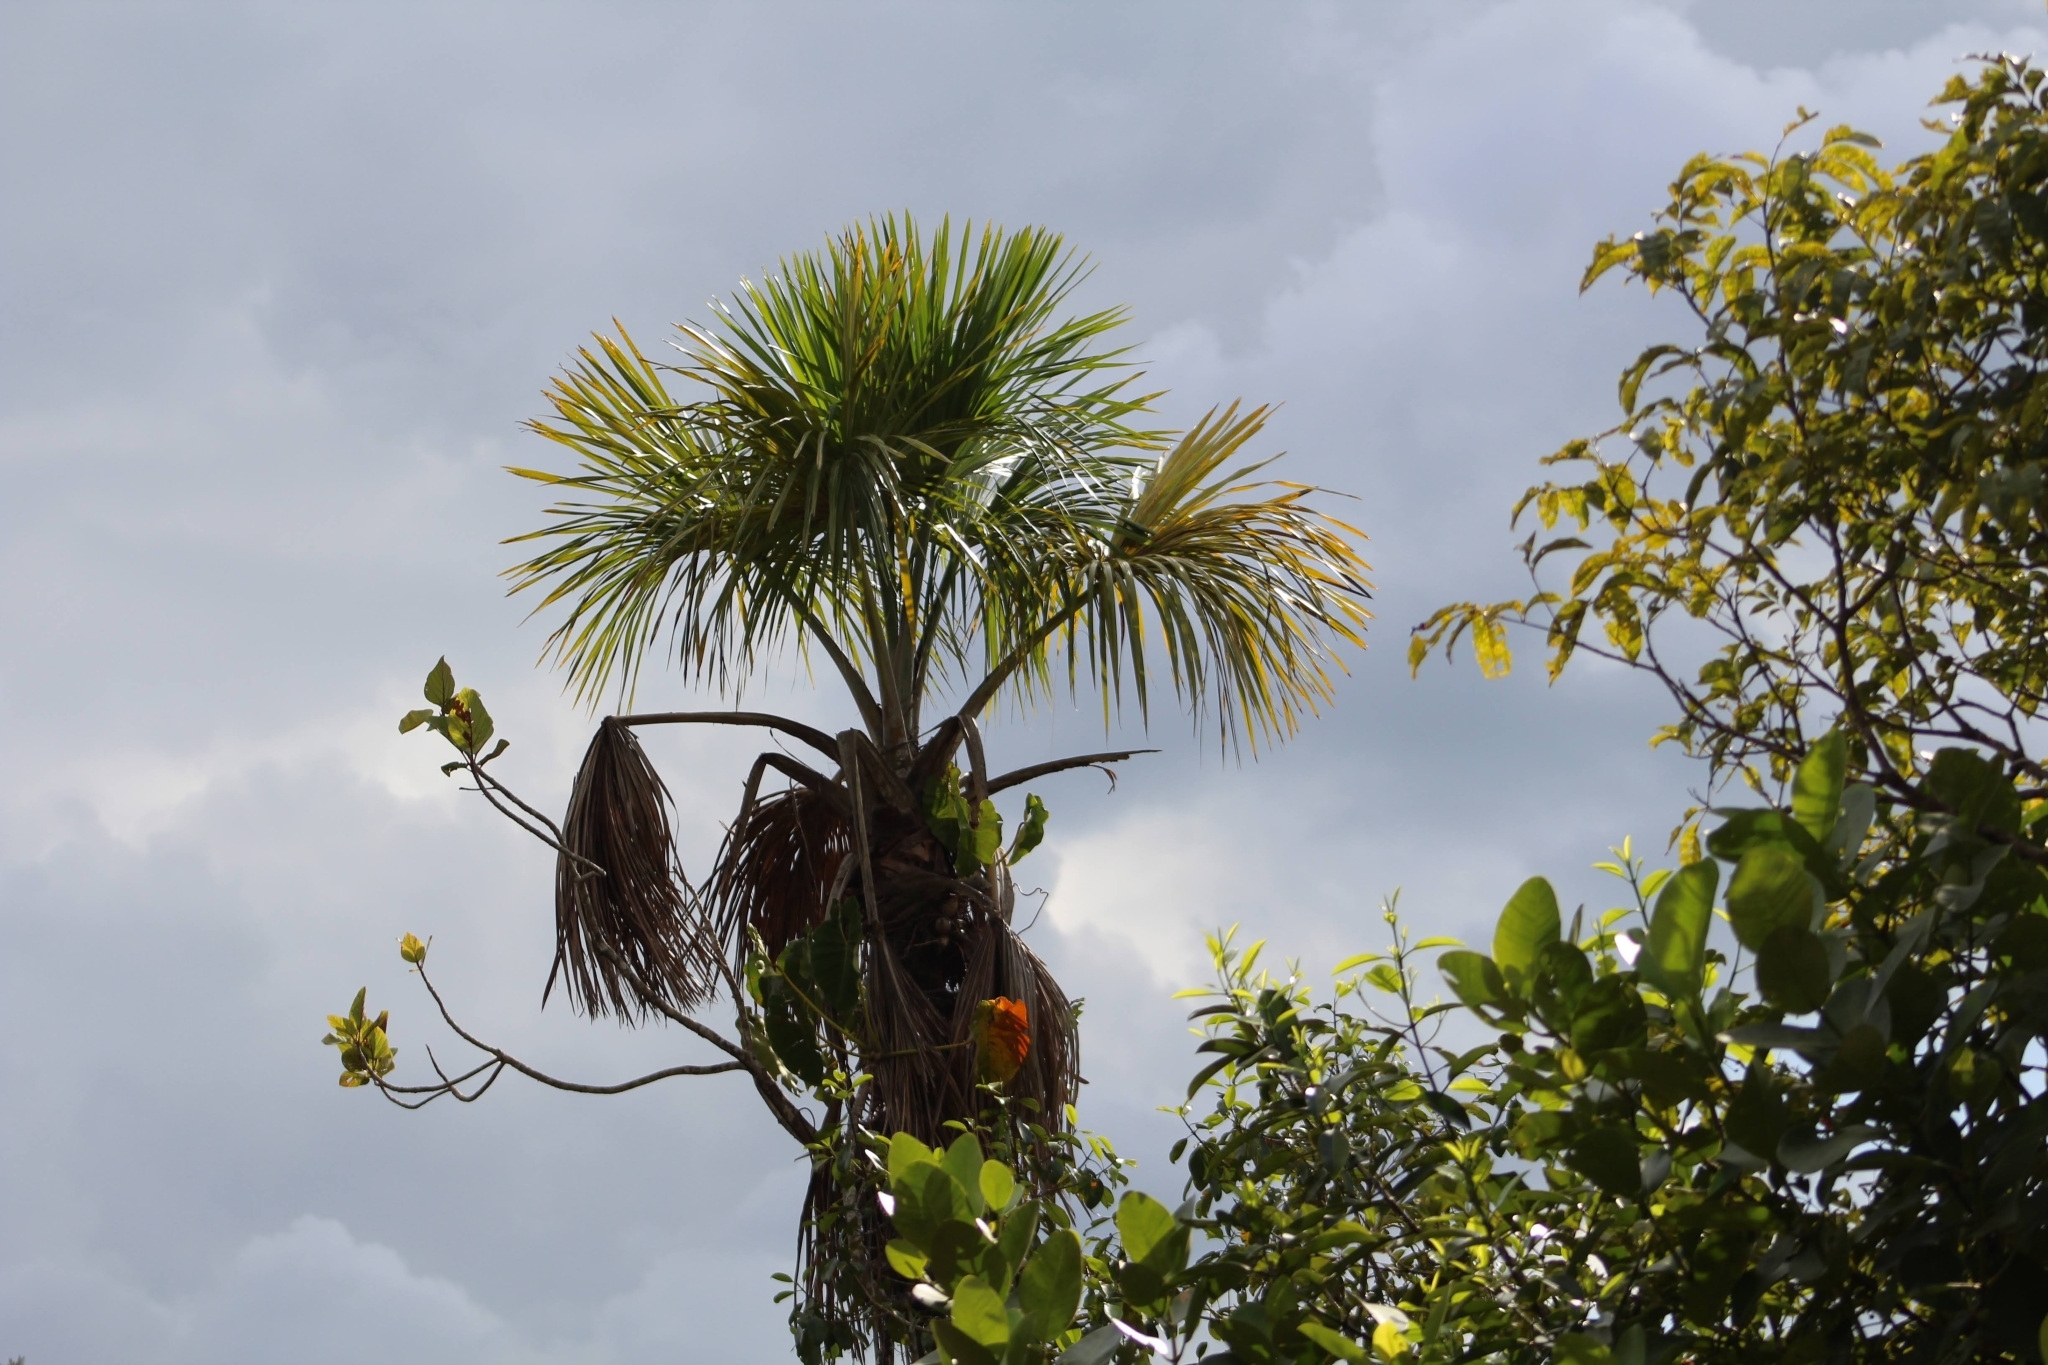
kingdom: Plantae
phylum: Tracheophyta
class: Liliopsida
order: Arecales
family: Arecaceae
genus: Mauritia
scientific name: Mauritia flexuosa
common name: Tree-of-life
